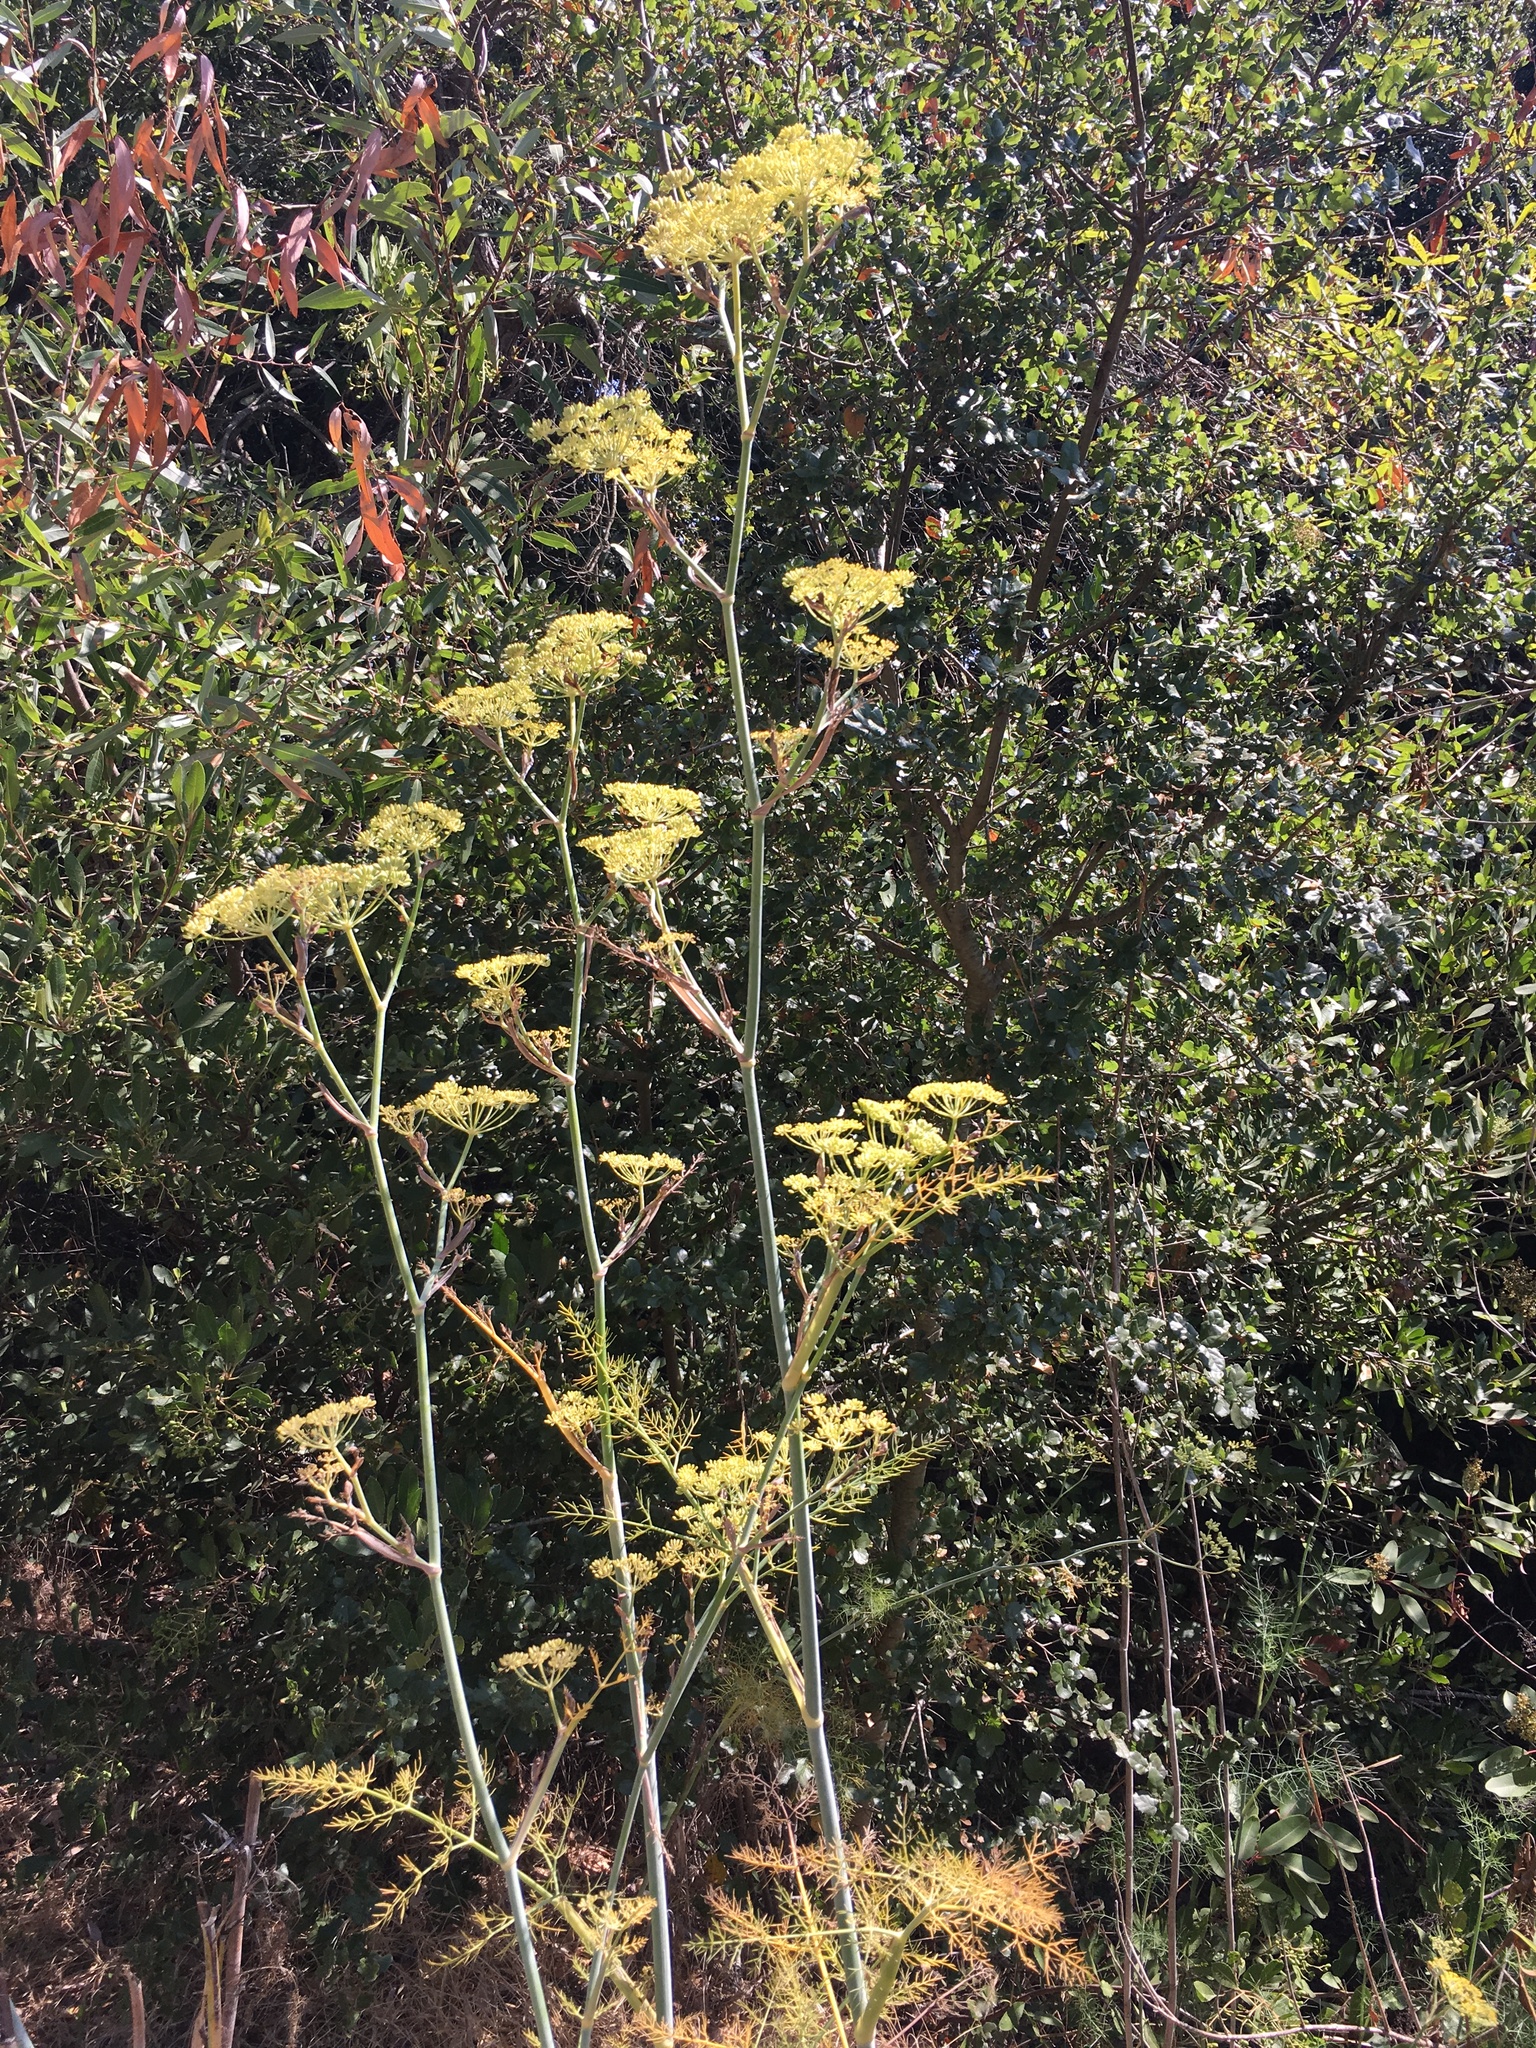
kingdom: Plantae
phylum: Tracheophyta
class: Magnoliopsida
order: Apiales
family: Apiaceae
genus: Foeniculum
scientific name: Foeniculum vulgare
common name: Fennel
